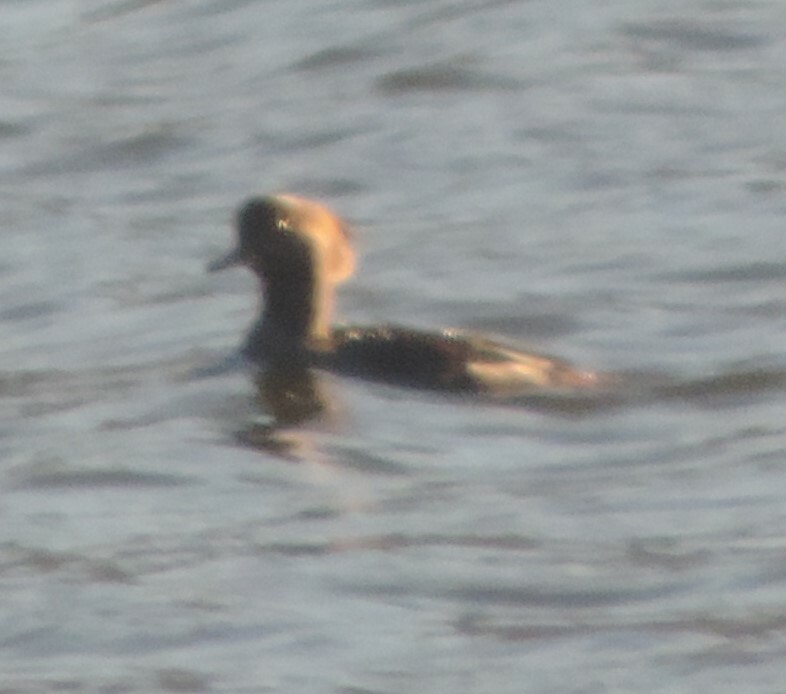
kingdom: Animalia
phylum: Chordata
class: Aves
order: Anseriformes
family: Anatidae
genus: Lophodytes
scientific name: Lophodytes cucullatus
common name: Hooded merganser
